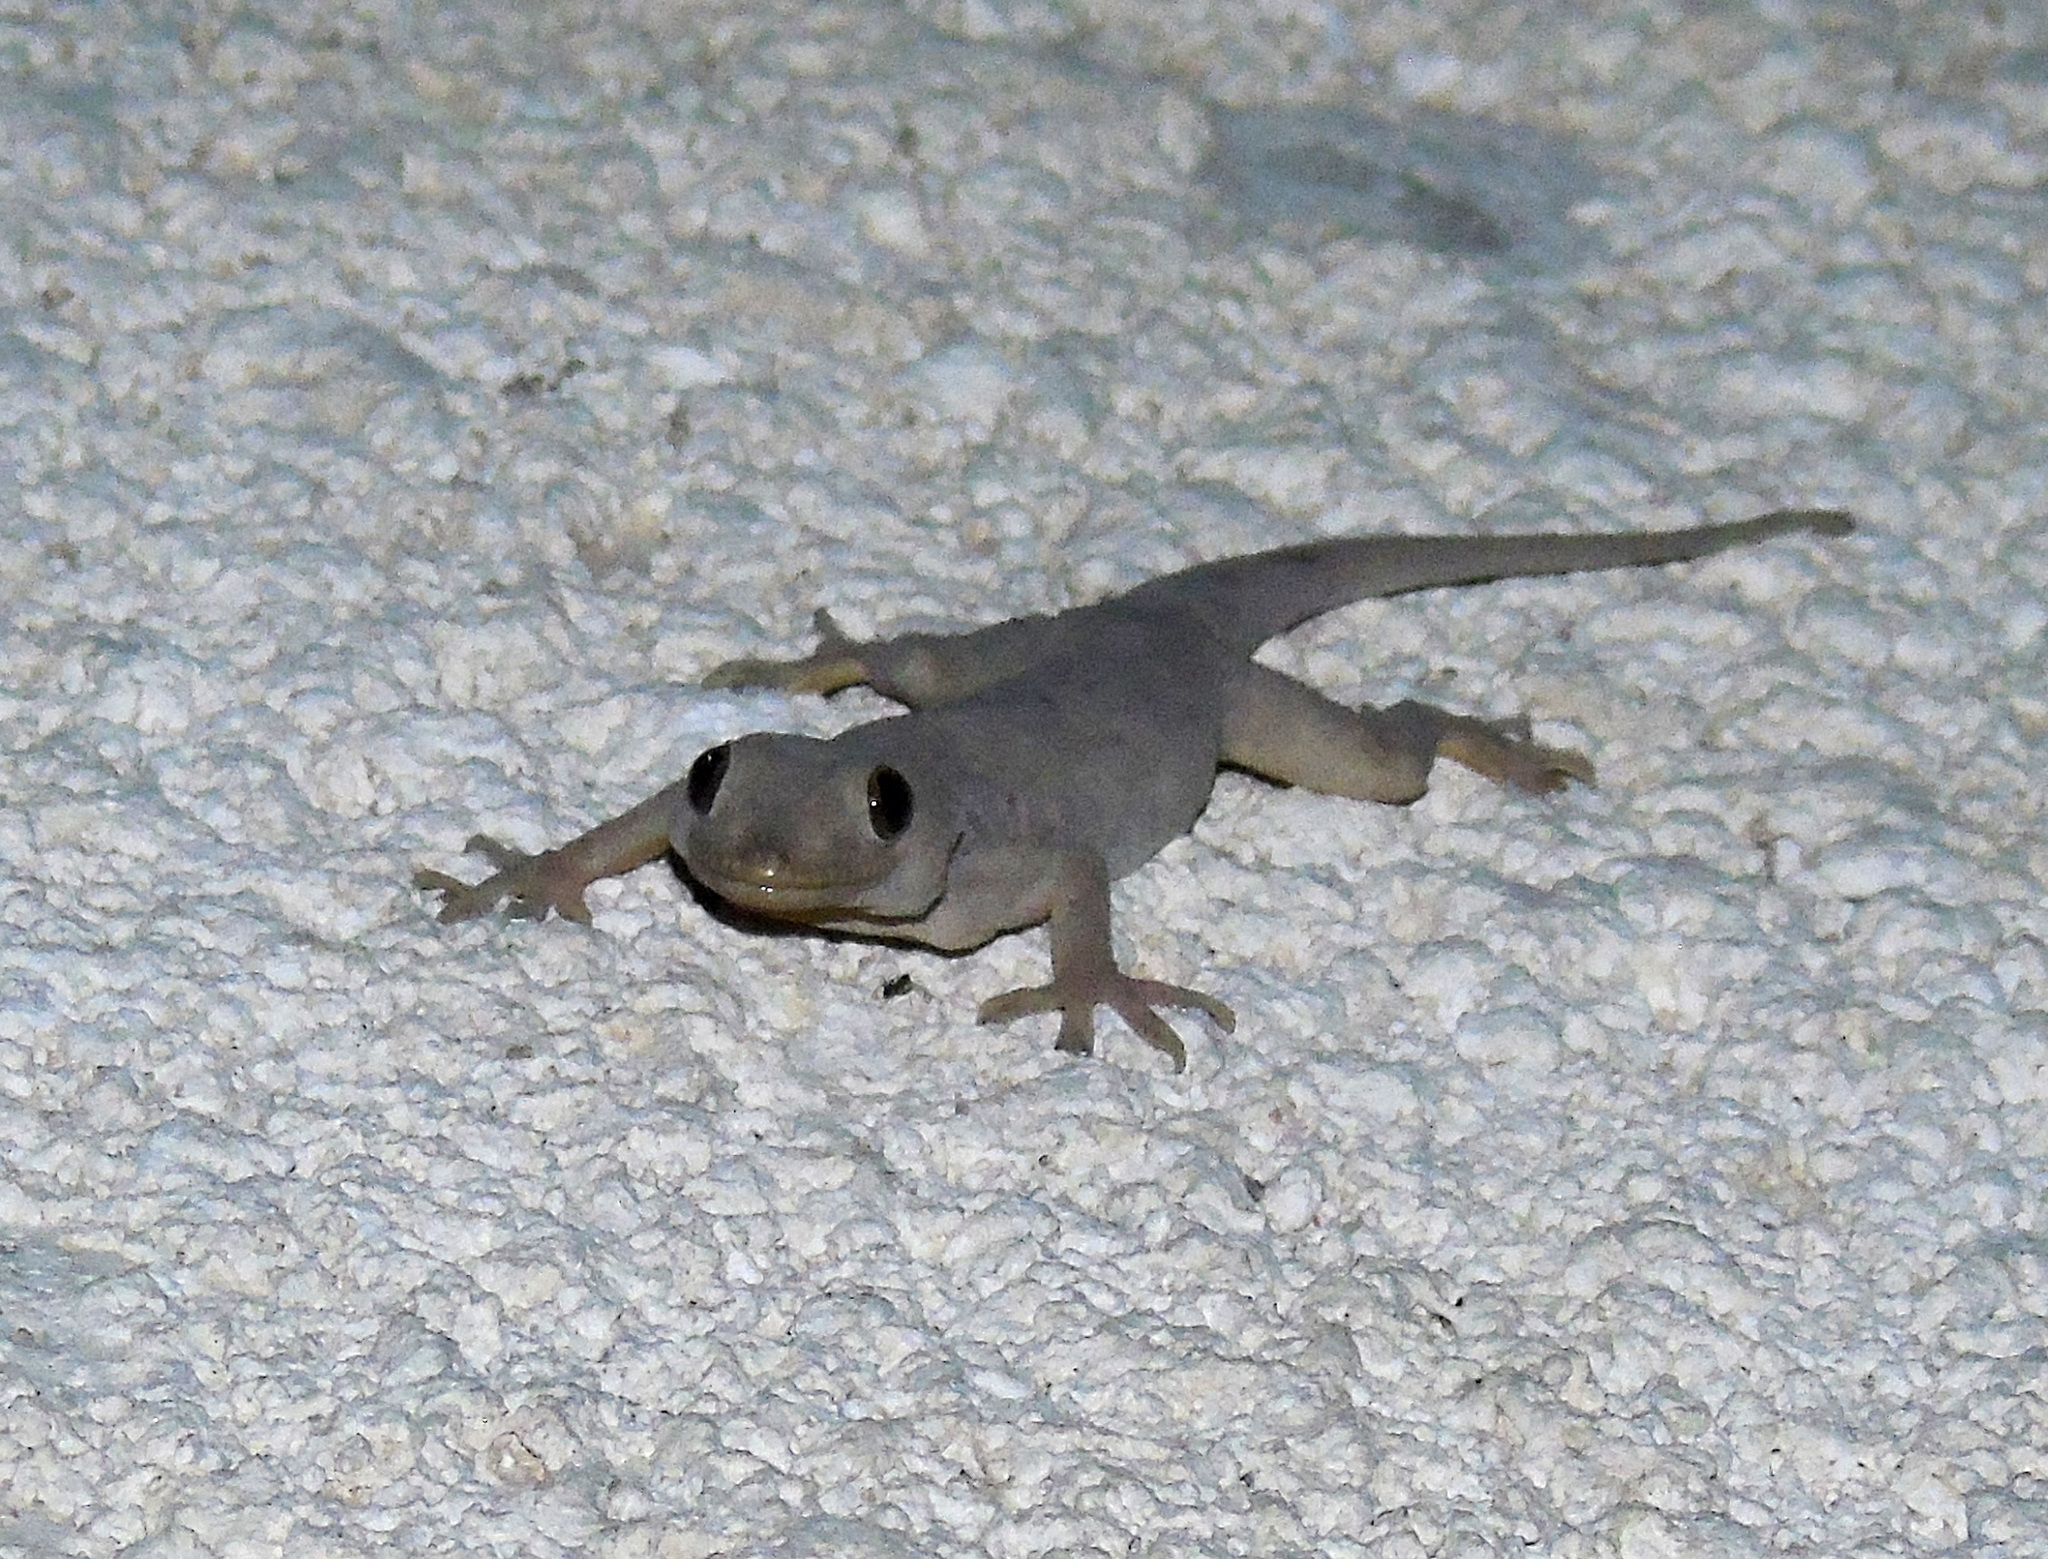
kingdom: Animalia
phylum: Chordata
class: Squamata
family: Gekkonidae
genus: Hemidactylus
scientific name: Hemidactylus flaviviridis
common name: Northern house gecko
